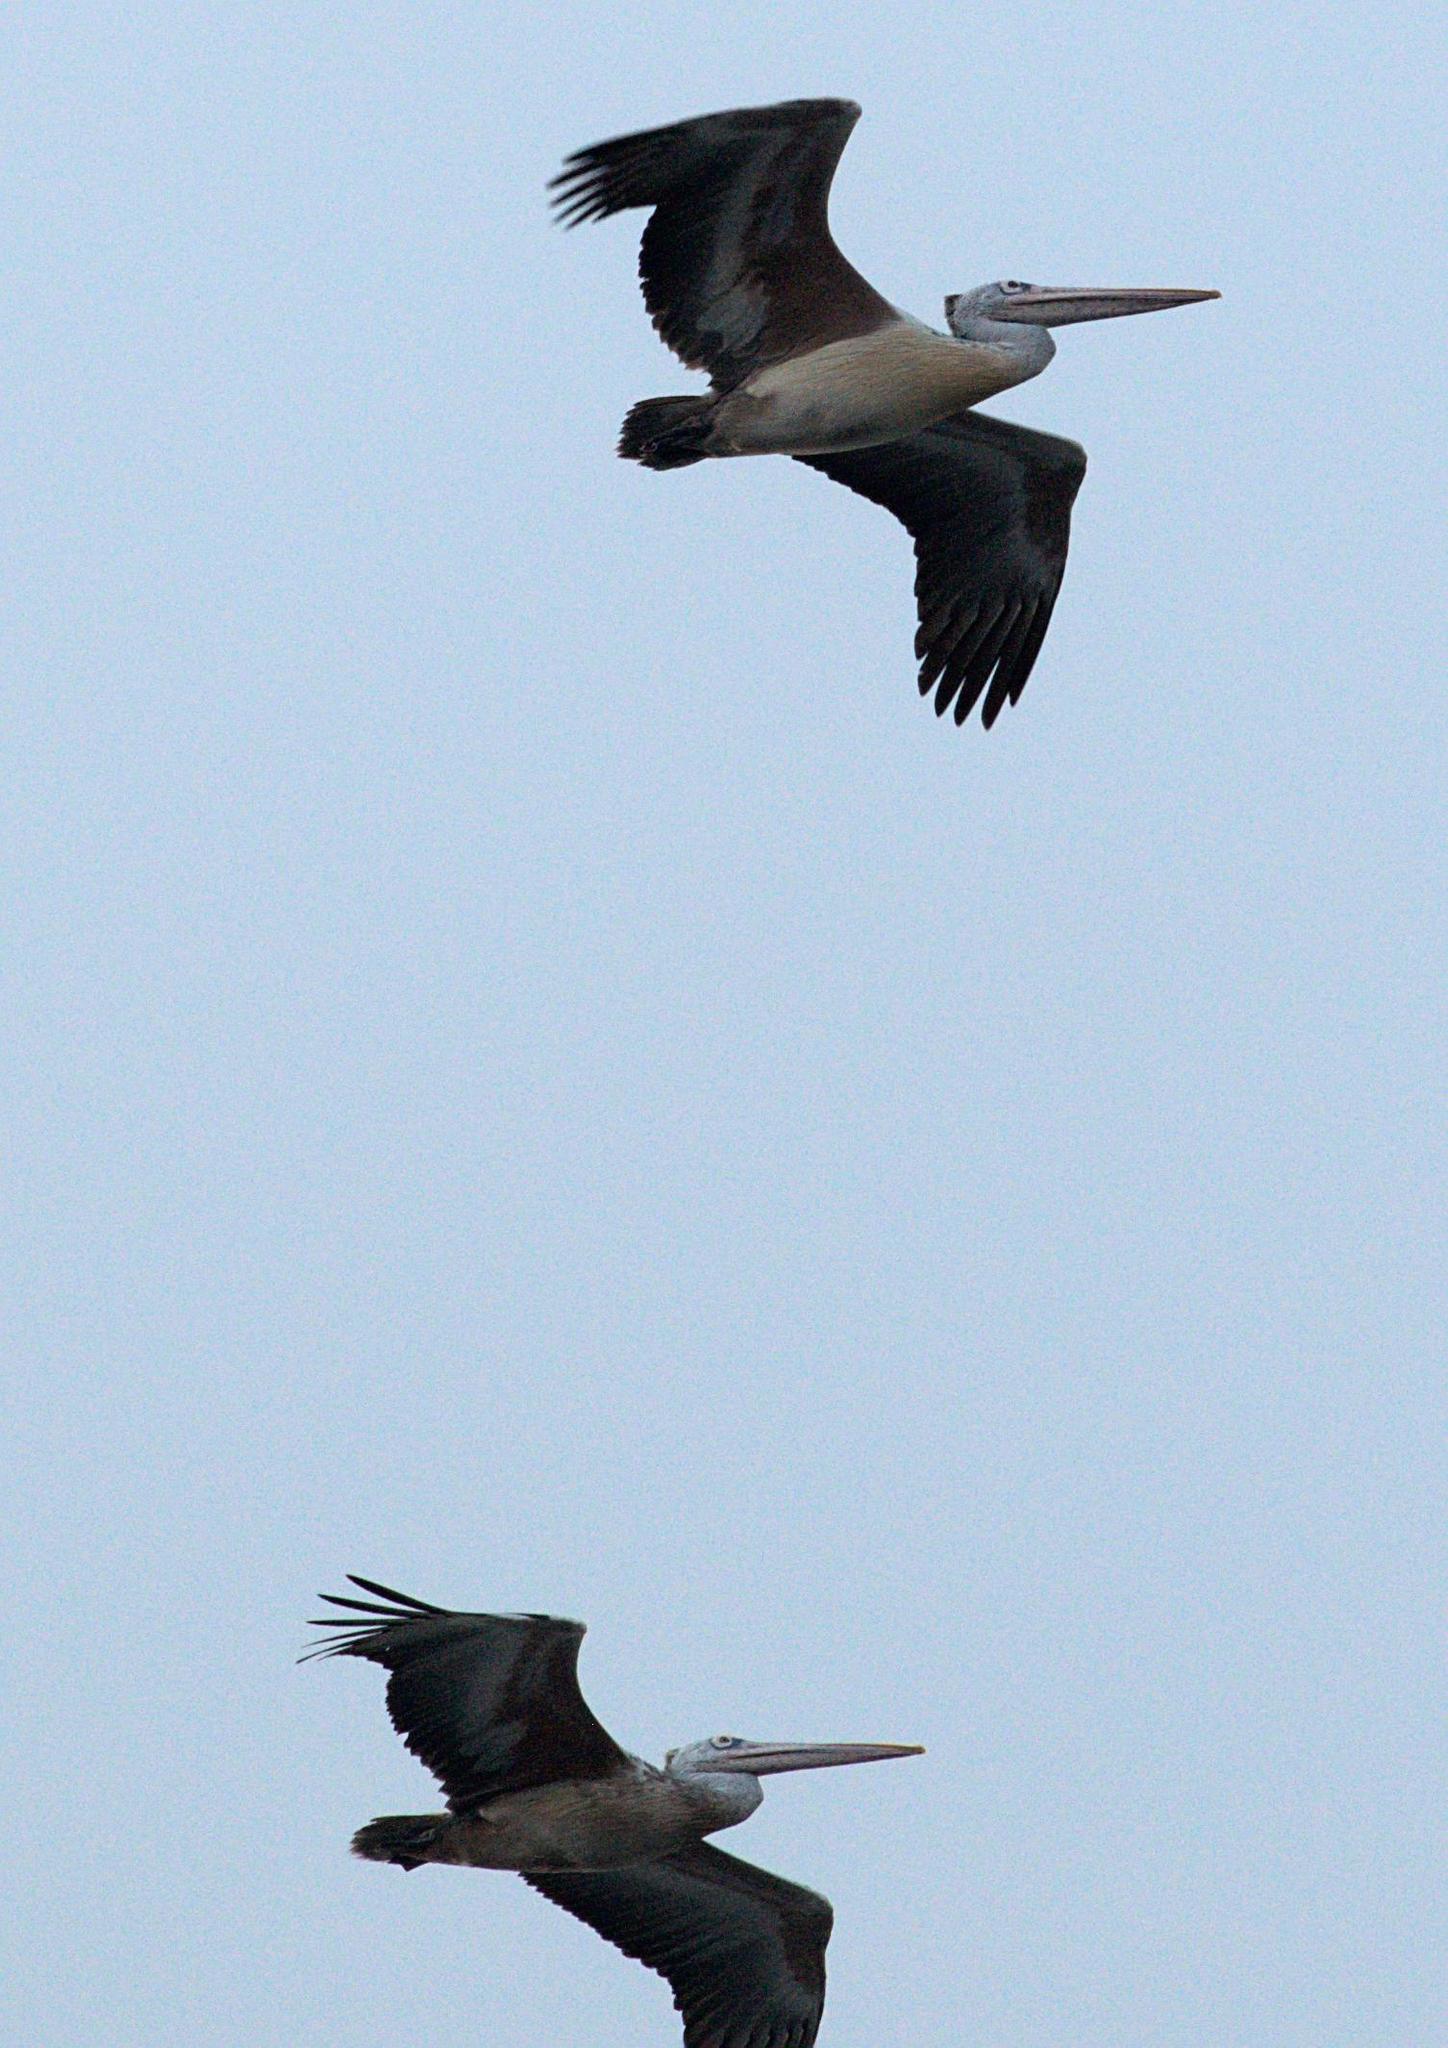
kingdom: Animalia
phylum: Chordata
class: Aves
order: Pelecaniformes
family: Pelecanidae
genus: Pelecanus
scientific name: Pelecanus philippensis
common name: Spot-billed pelican
